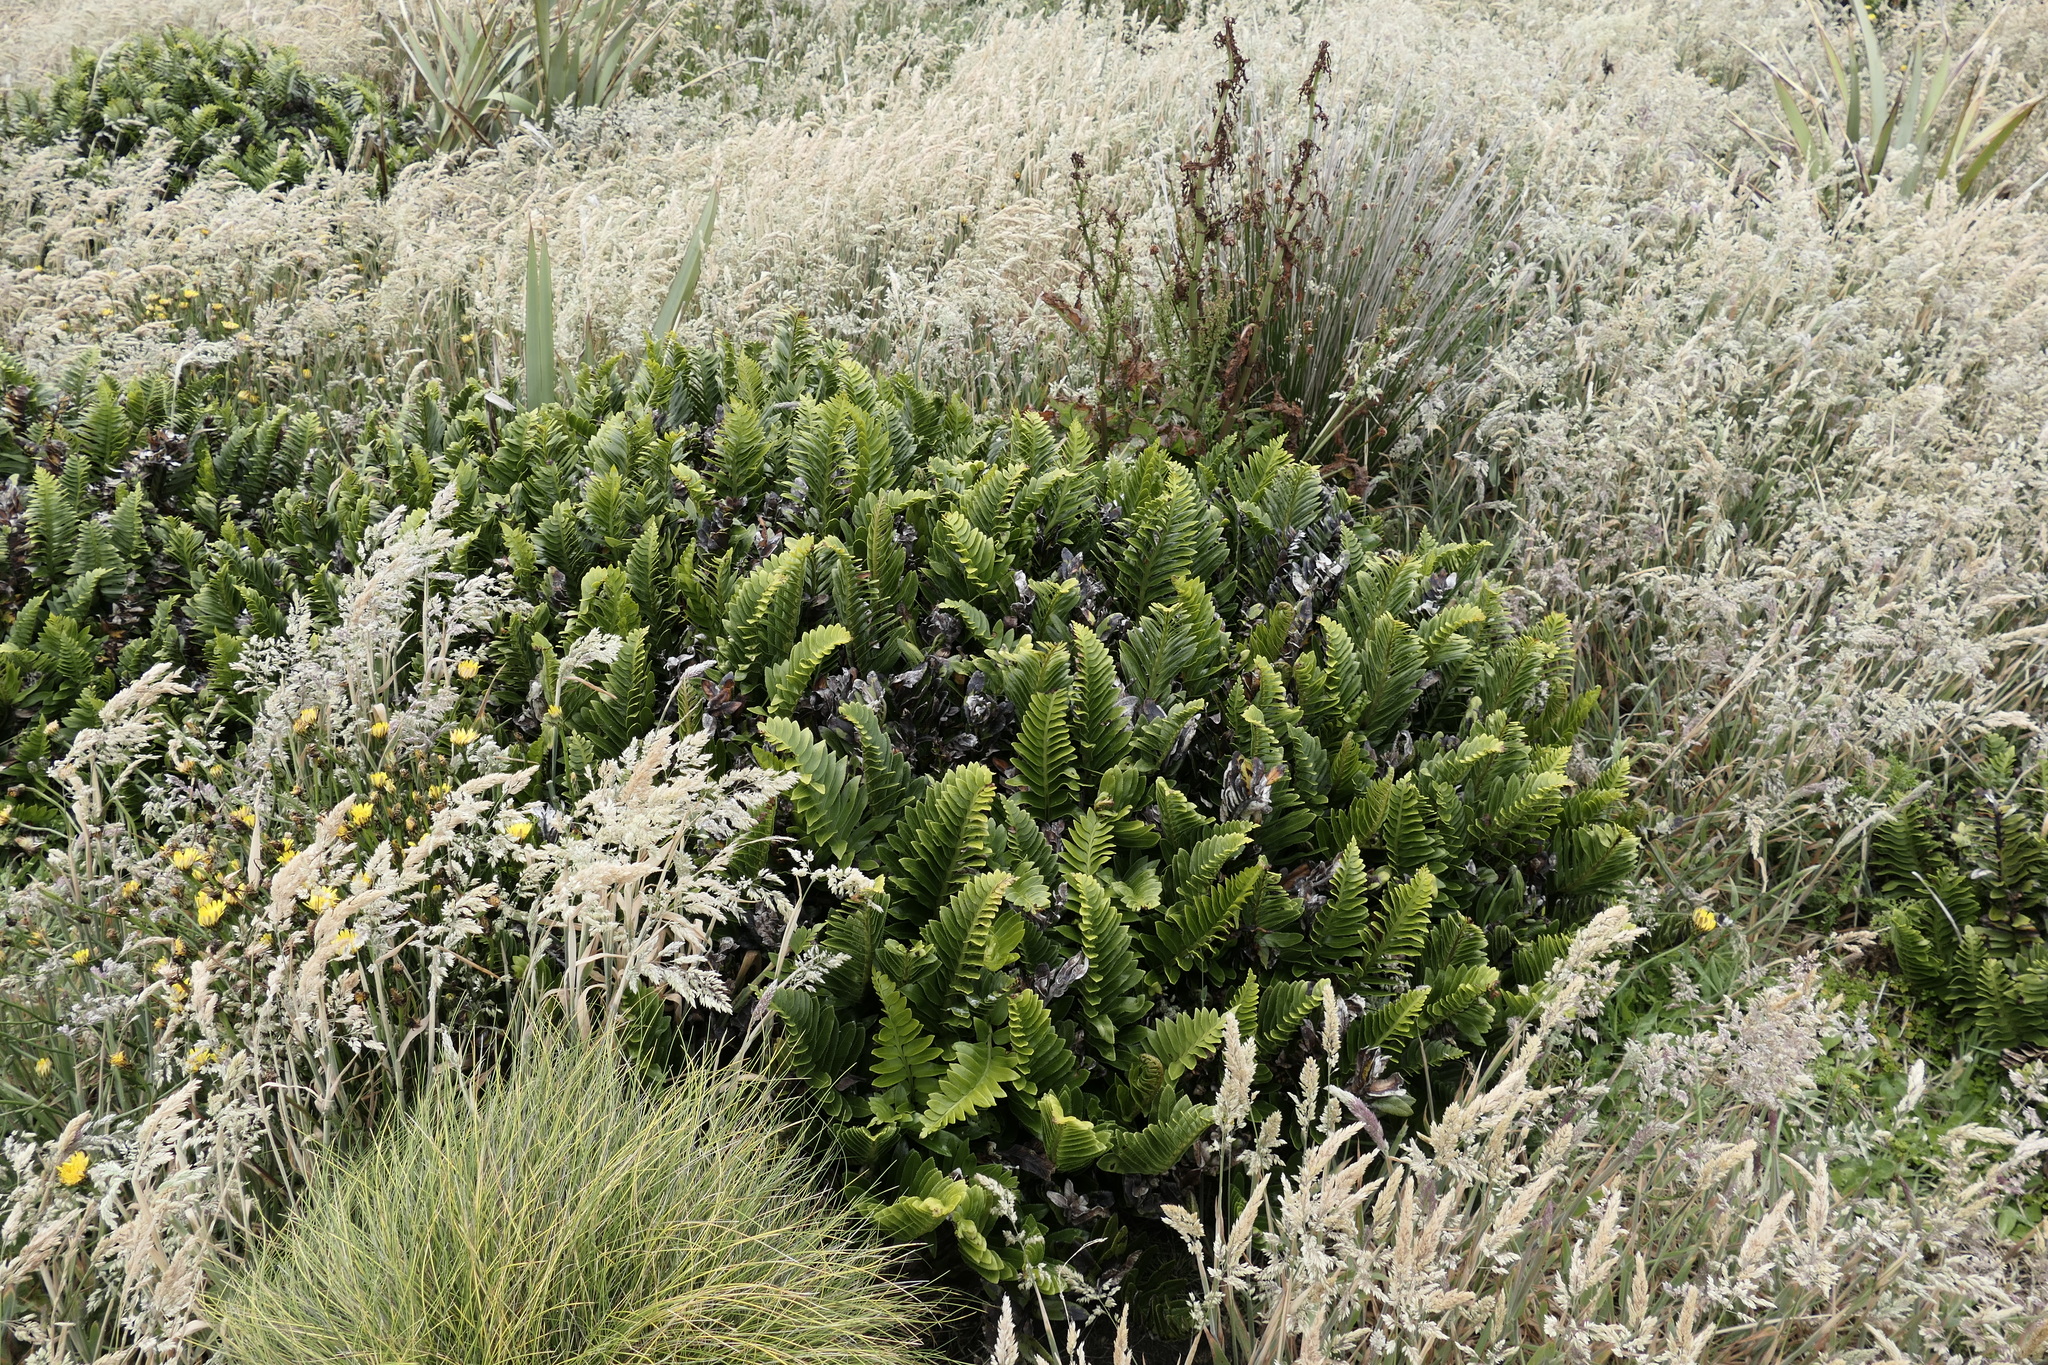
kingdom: Plantae
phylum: Tracheophyta
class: Polypodiopsida
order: Polypodiales
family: Aspleniaceae
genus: Asplenium
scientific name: Asplenium obtusatum
